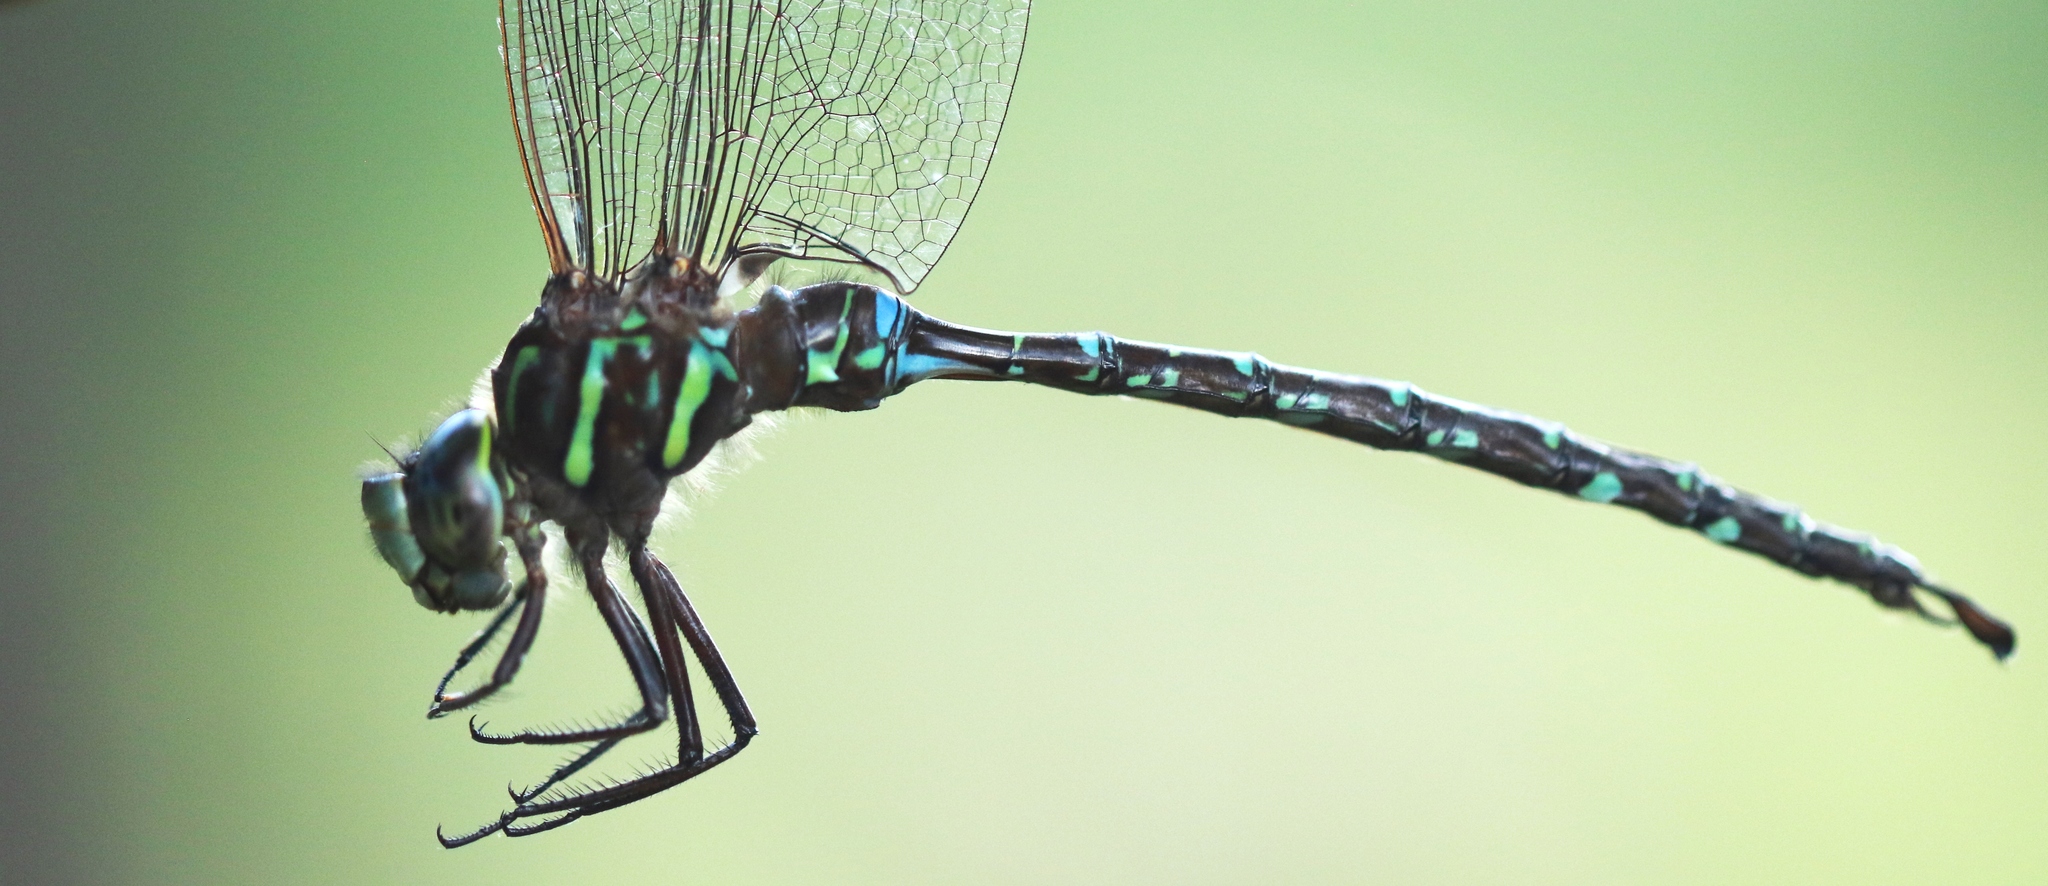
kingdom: Animalia
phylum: Arthropoda
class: Insecta
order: Odonata
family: Aeshnidae
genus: Aeshna
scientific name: Aeshna umbrosa
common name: Shadow darner
